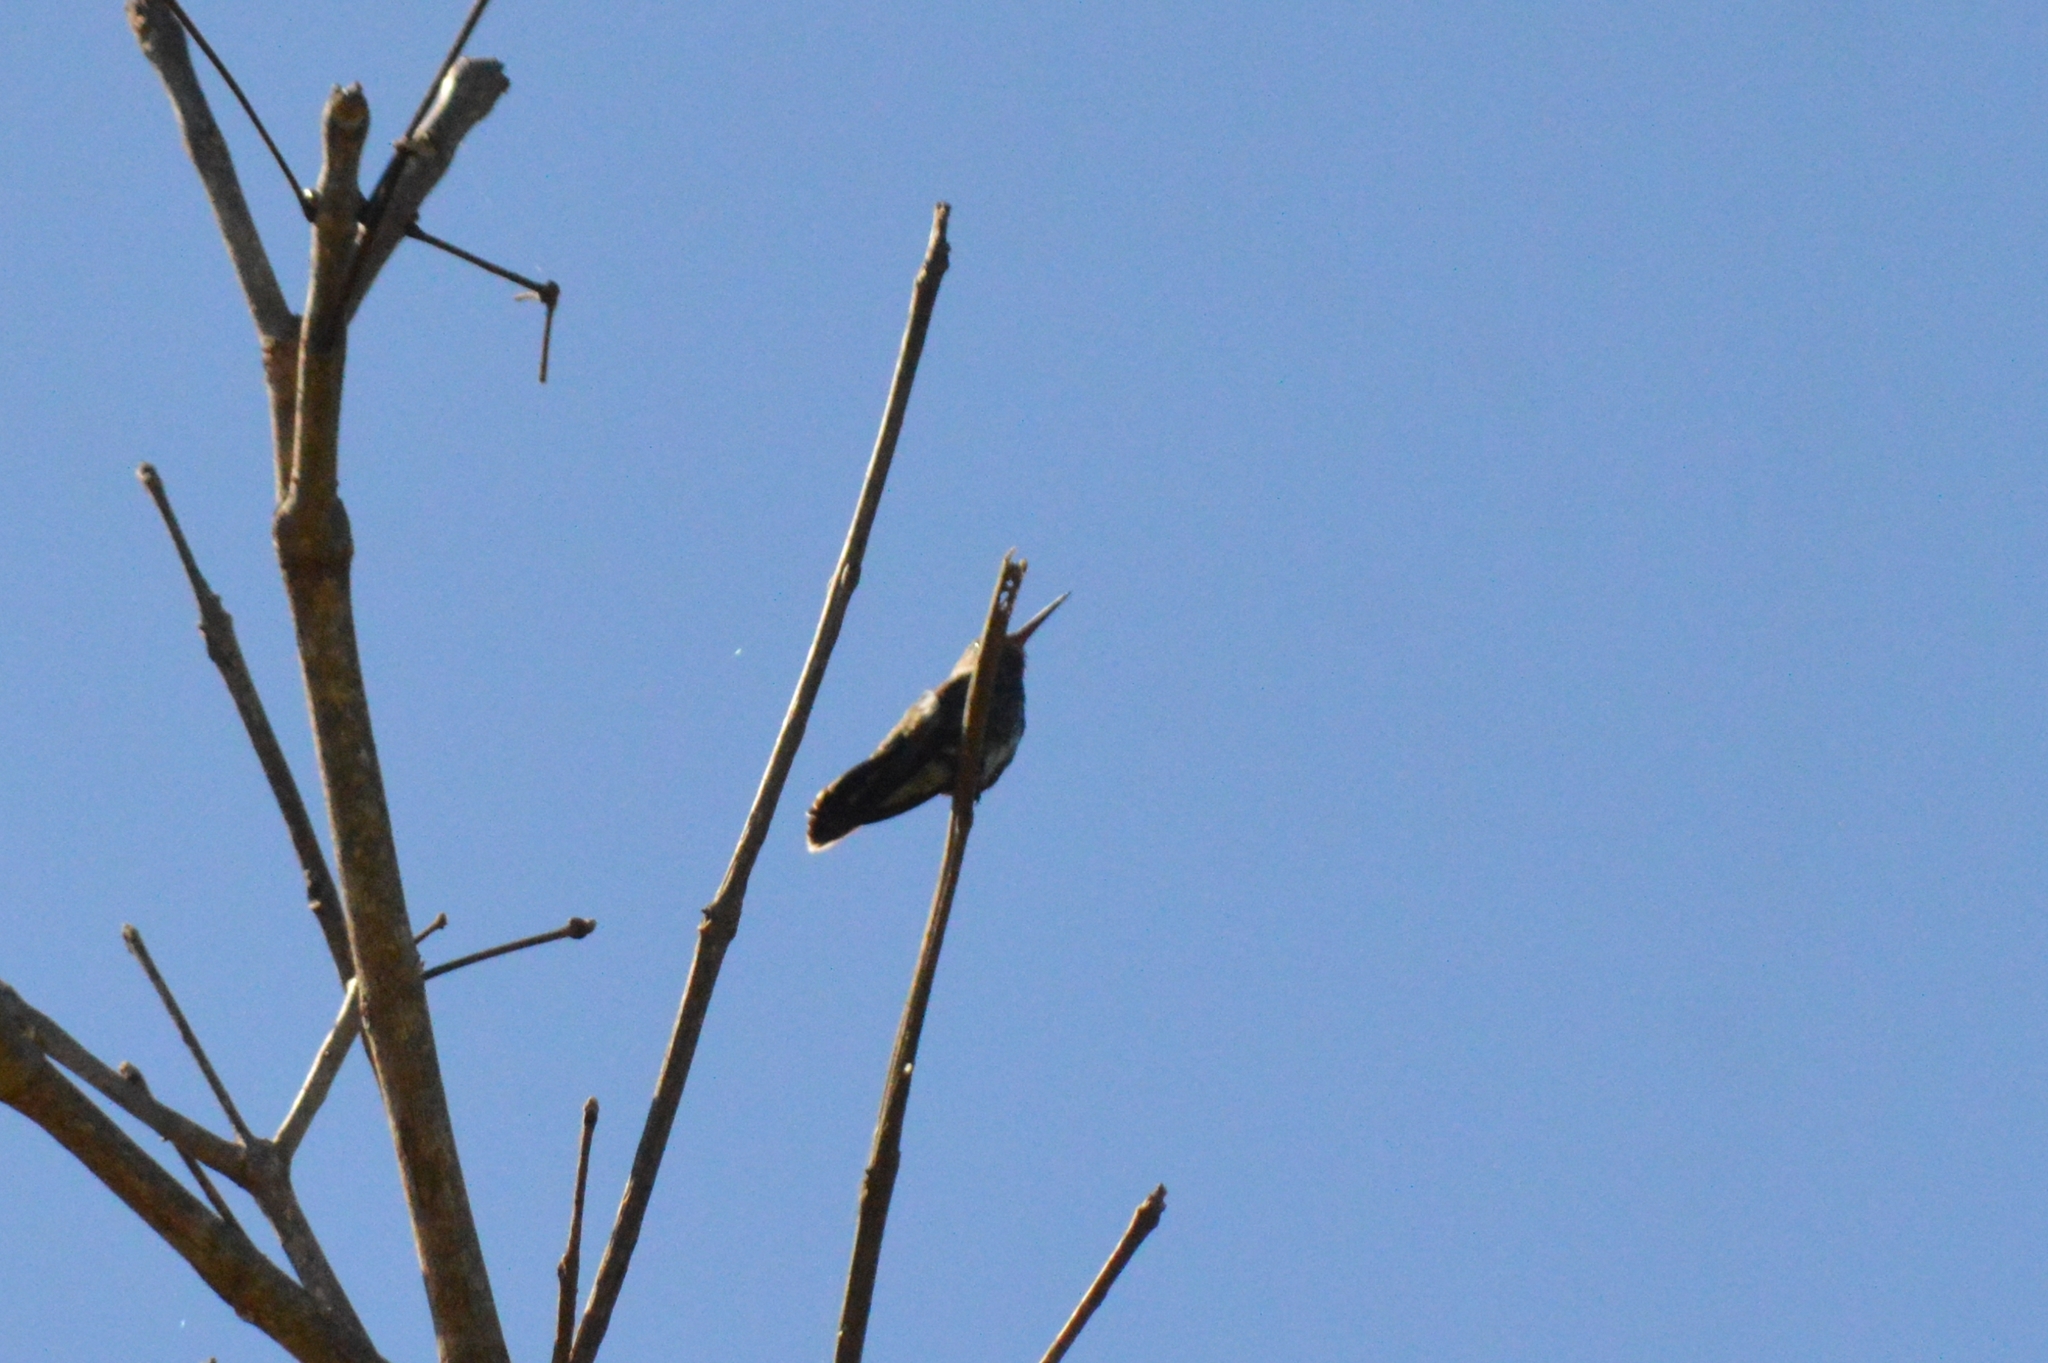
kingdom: Animalia
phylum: Chordata
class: Aves
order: Apodiformes
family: Trochilidae
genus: Chionomesa
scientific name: Chionomesa fimbriata
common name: Glittering-throated emerald
